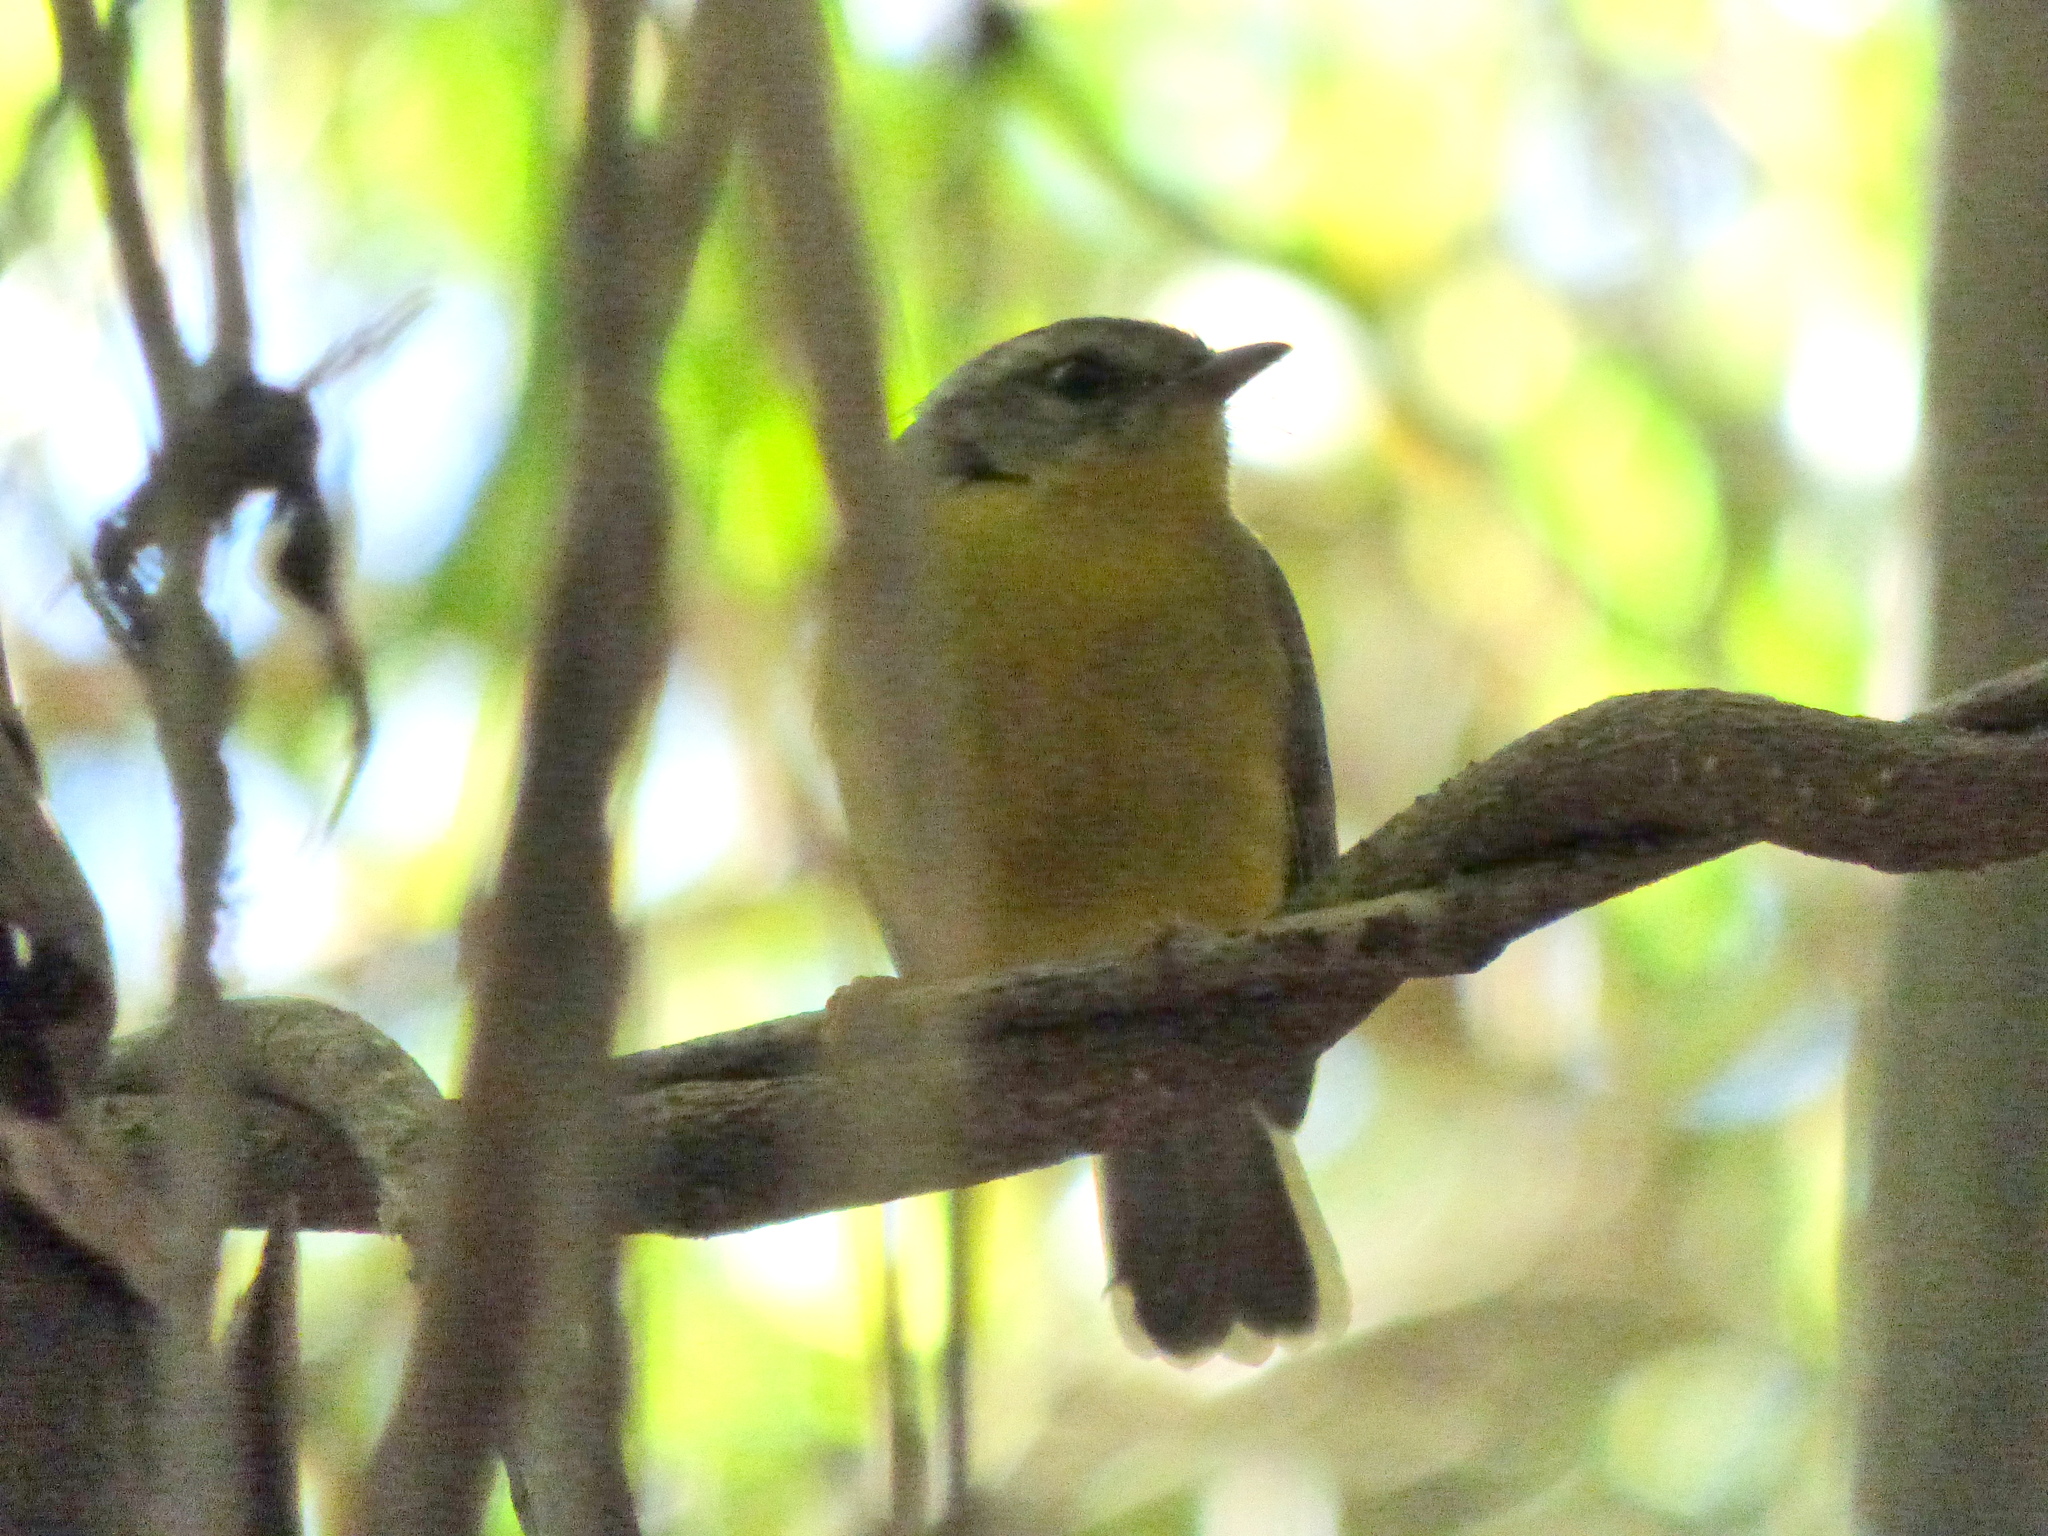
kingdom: Animalia
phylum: Chordata
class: Aves
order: Passeriformes
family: Parulidae
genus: Basileuterus
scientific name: Basileuterus culicivorus
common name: Golden-crowned warbler
